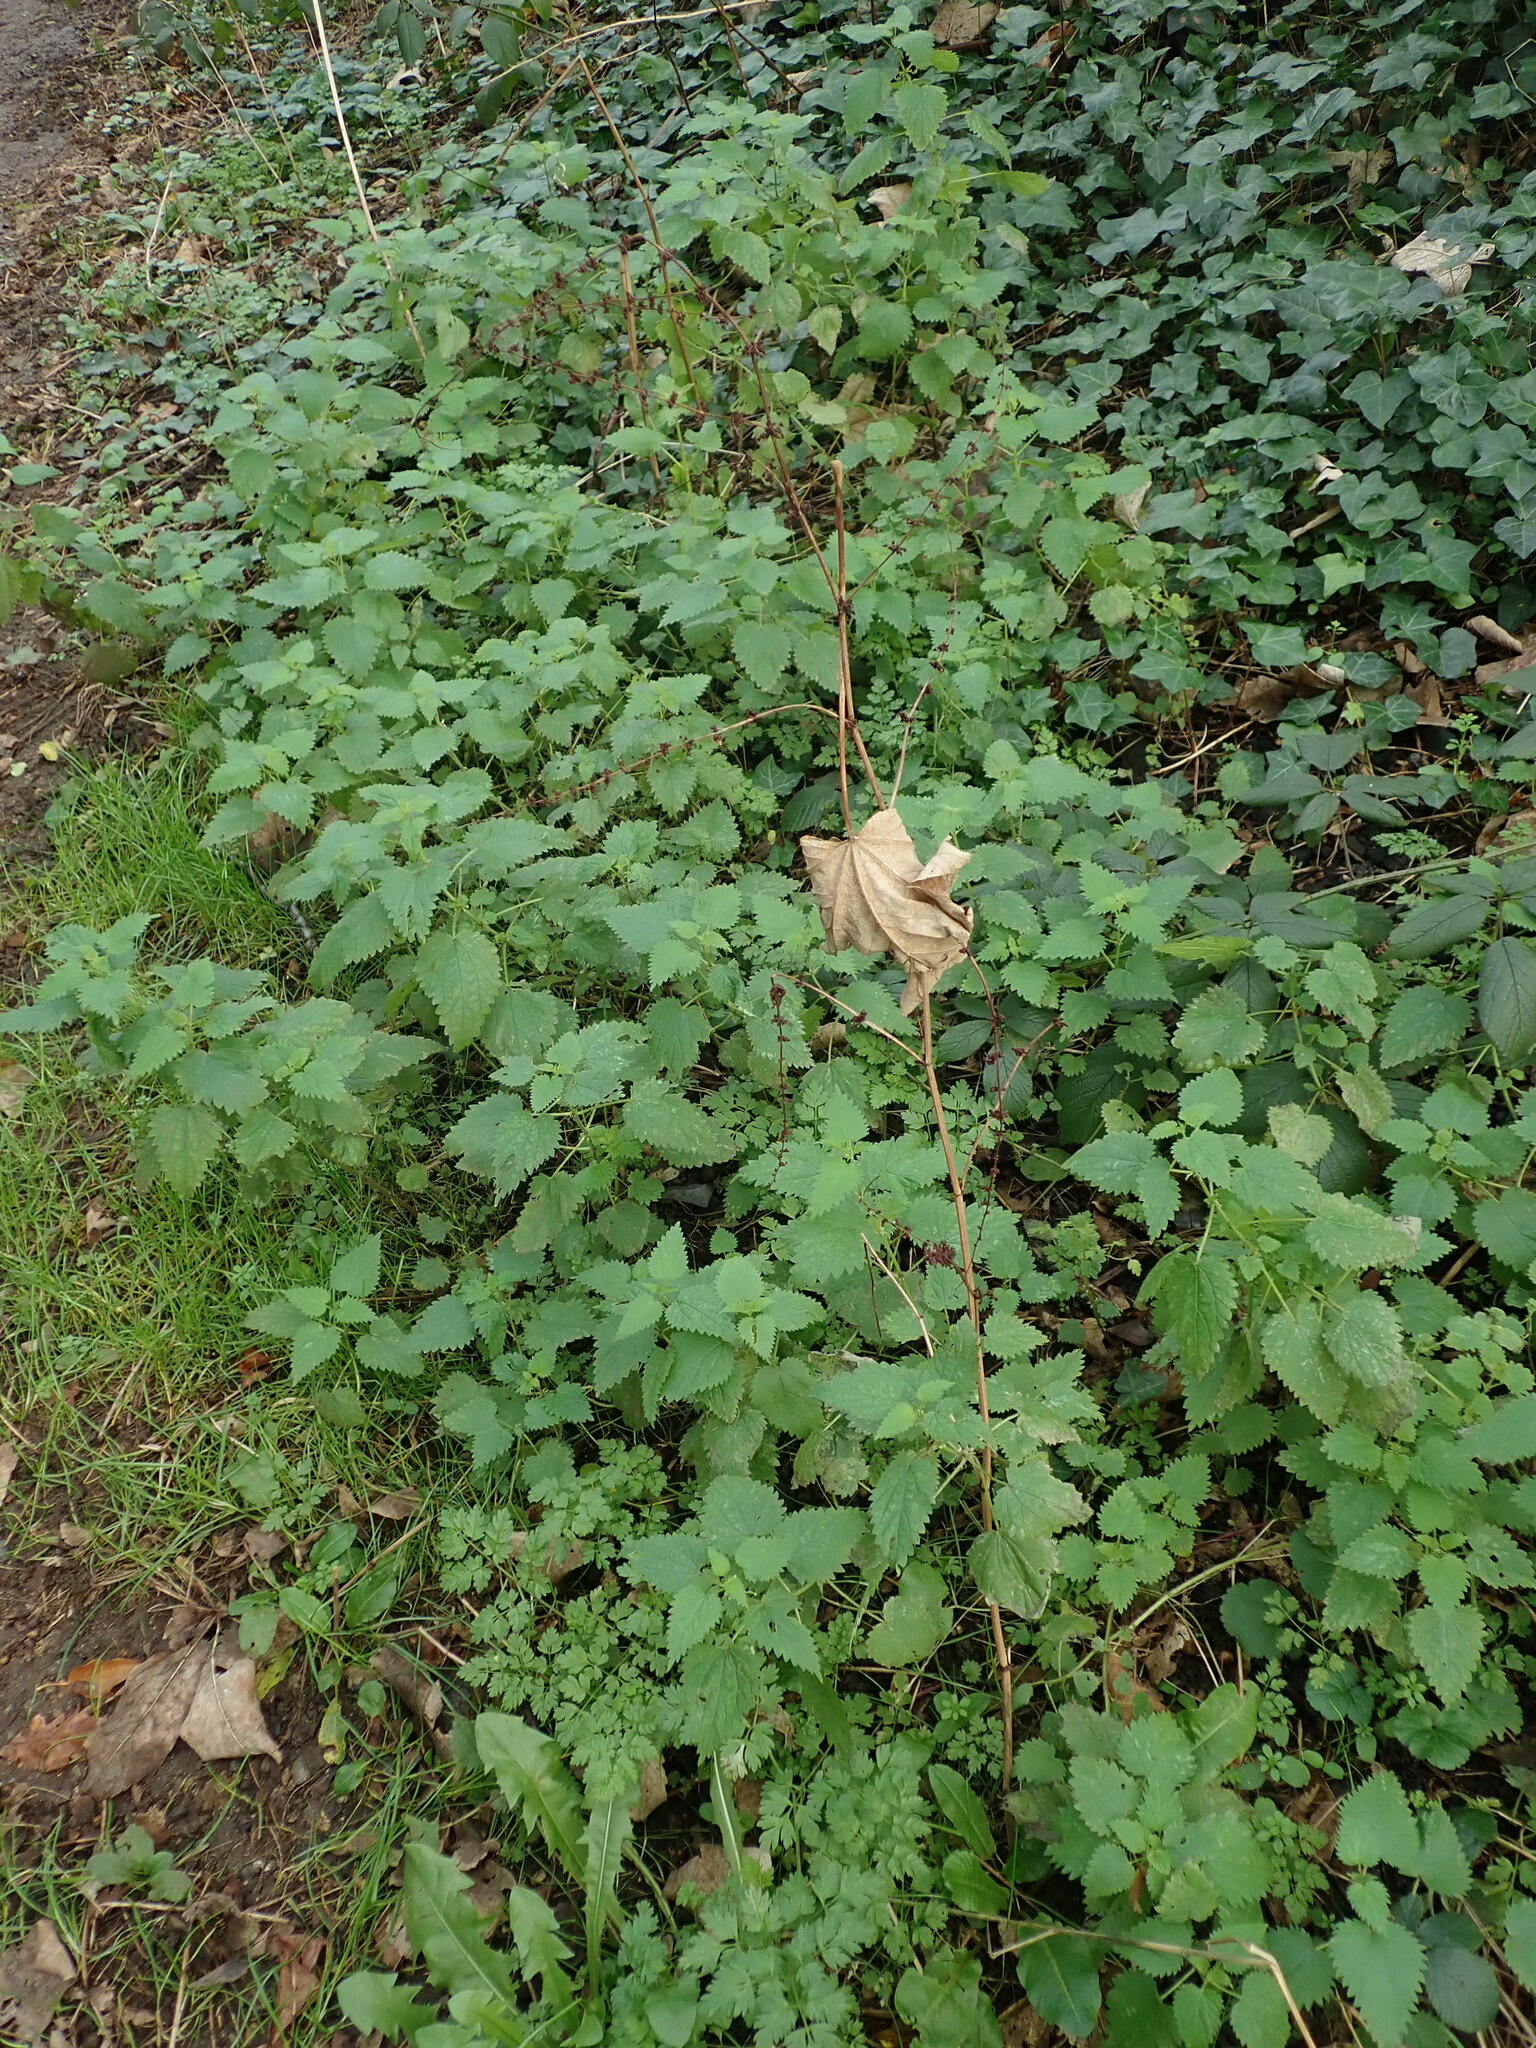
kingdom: Plantae
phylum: Tracheophyta
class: Magnoliopsida
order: Caryophyllales
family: Polygonaceae
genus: Rumex
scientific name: Rumex sanguineus
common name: Wood dock
